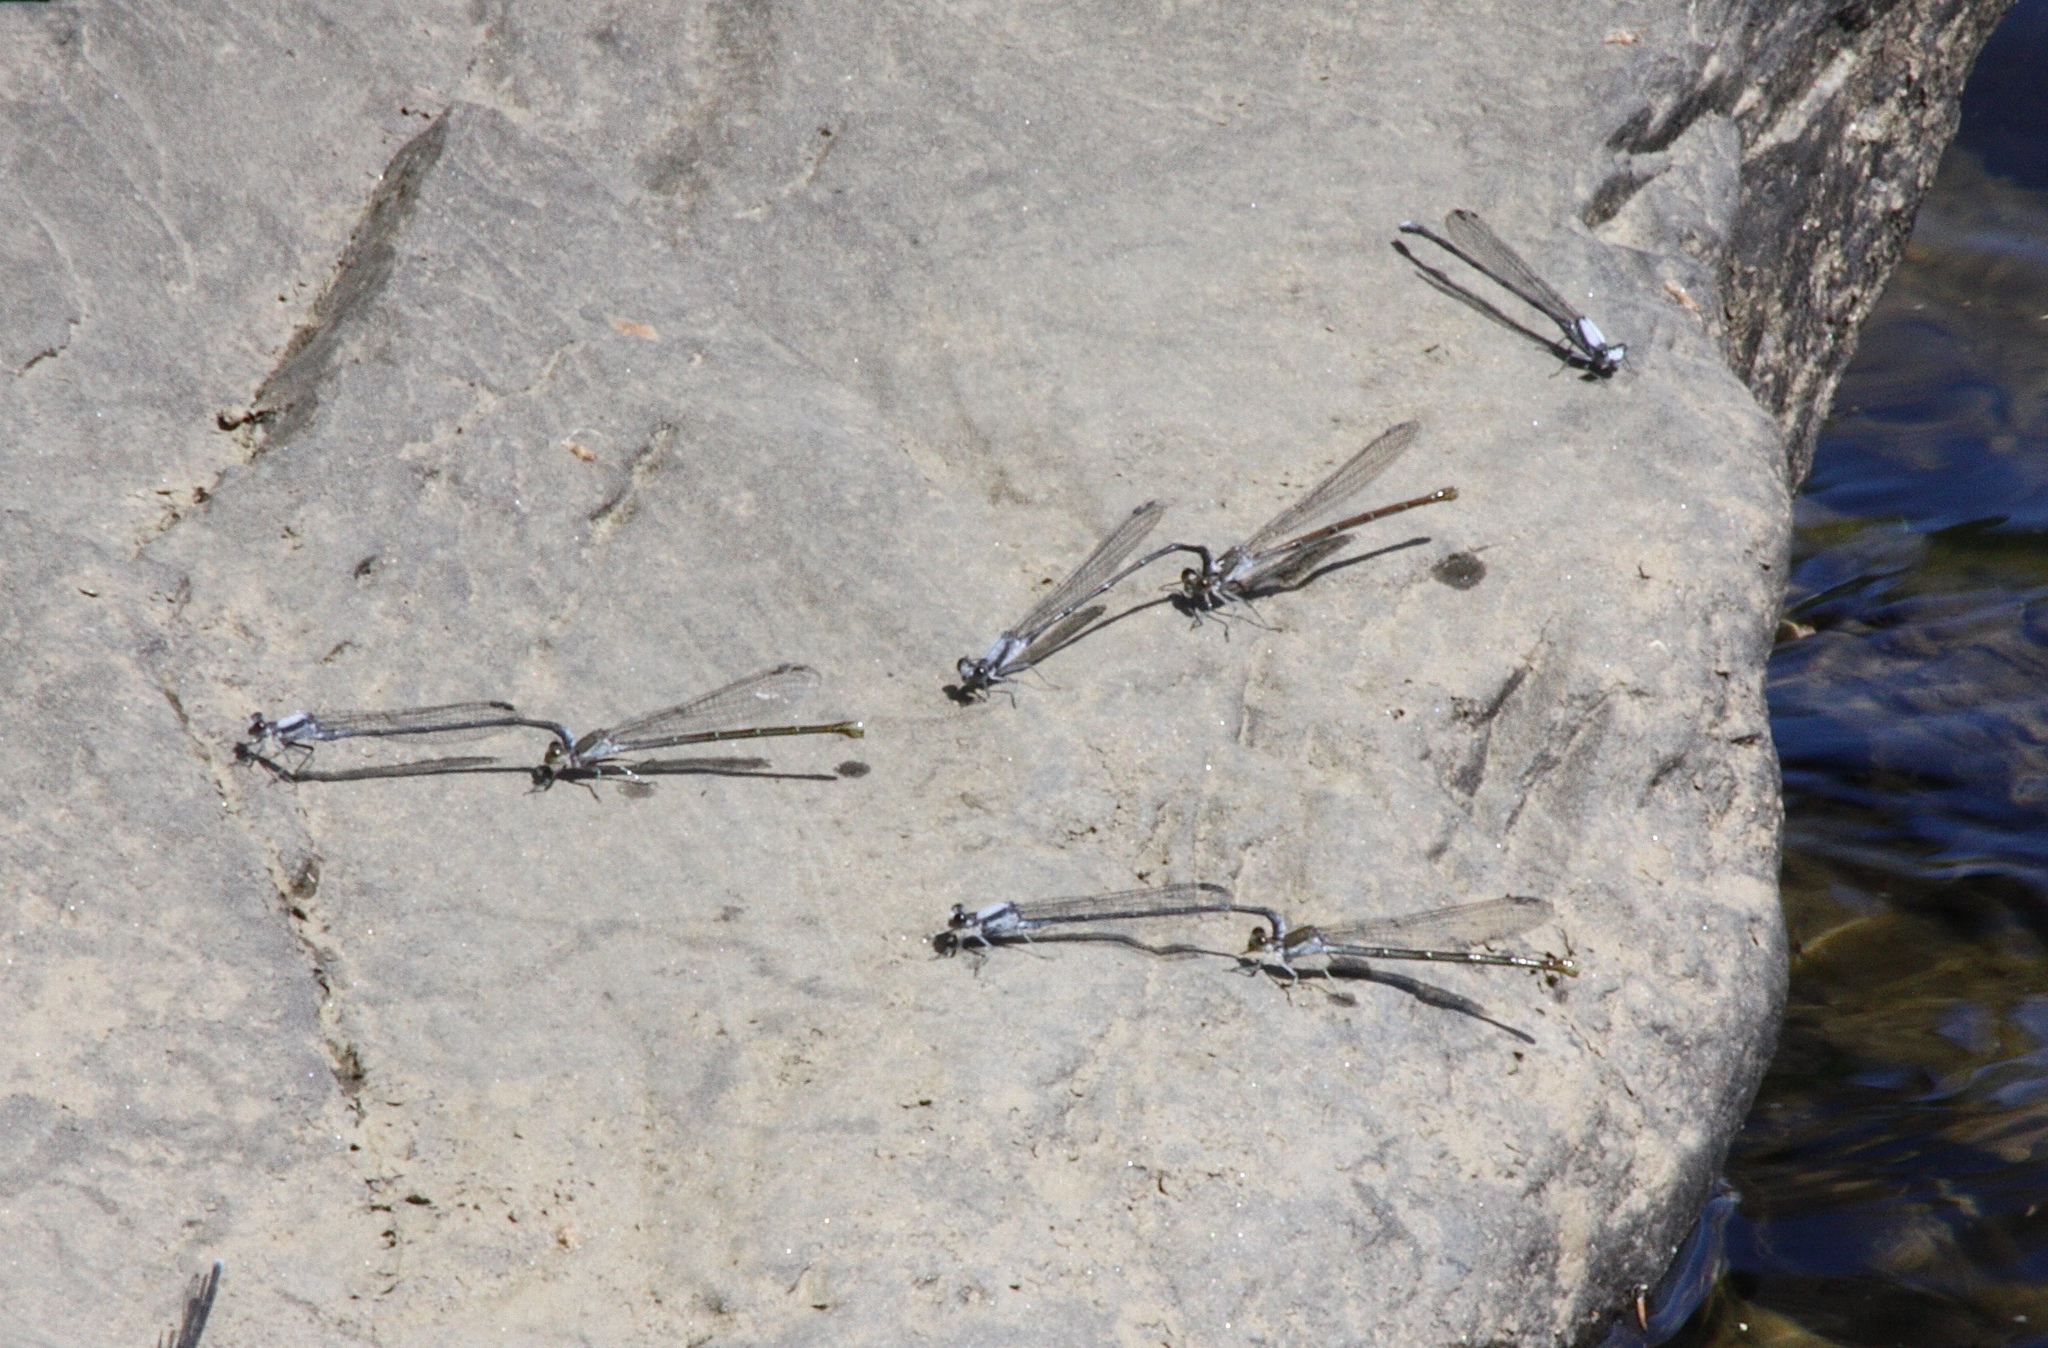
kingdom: Animalia
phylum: Arthropoda
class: Insecta
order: Odonata
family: Coenagrionidae
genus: Argia
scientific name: Argia moesta
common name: Powdered dancer
